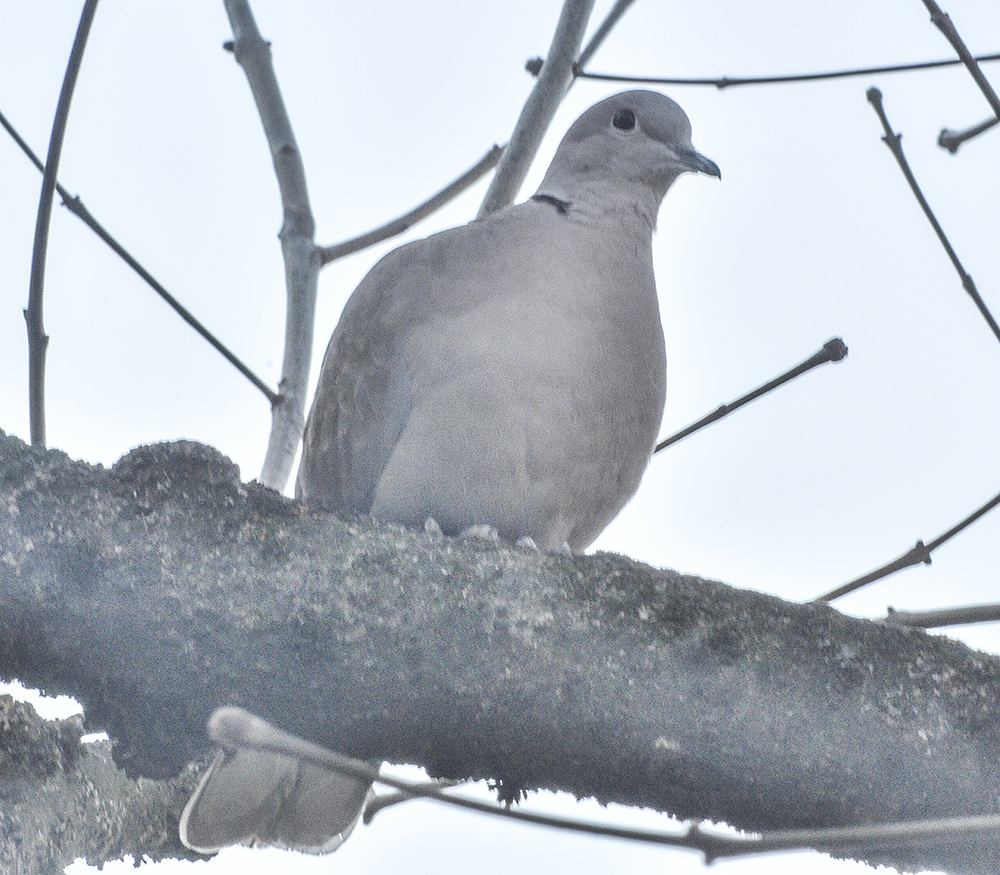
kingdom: Animalia
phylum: Chordata
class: Aves
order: Columbiformes
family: Columbidae
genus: Streptopelia
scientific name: Streptopelia decaocto
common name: Eurasian collared dove
